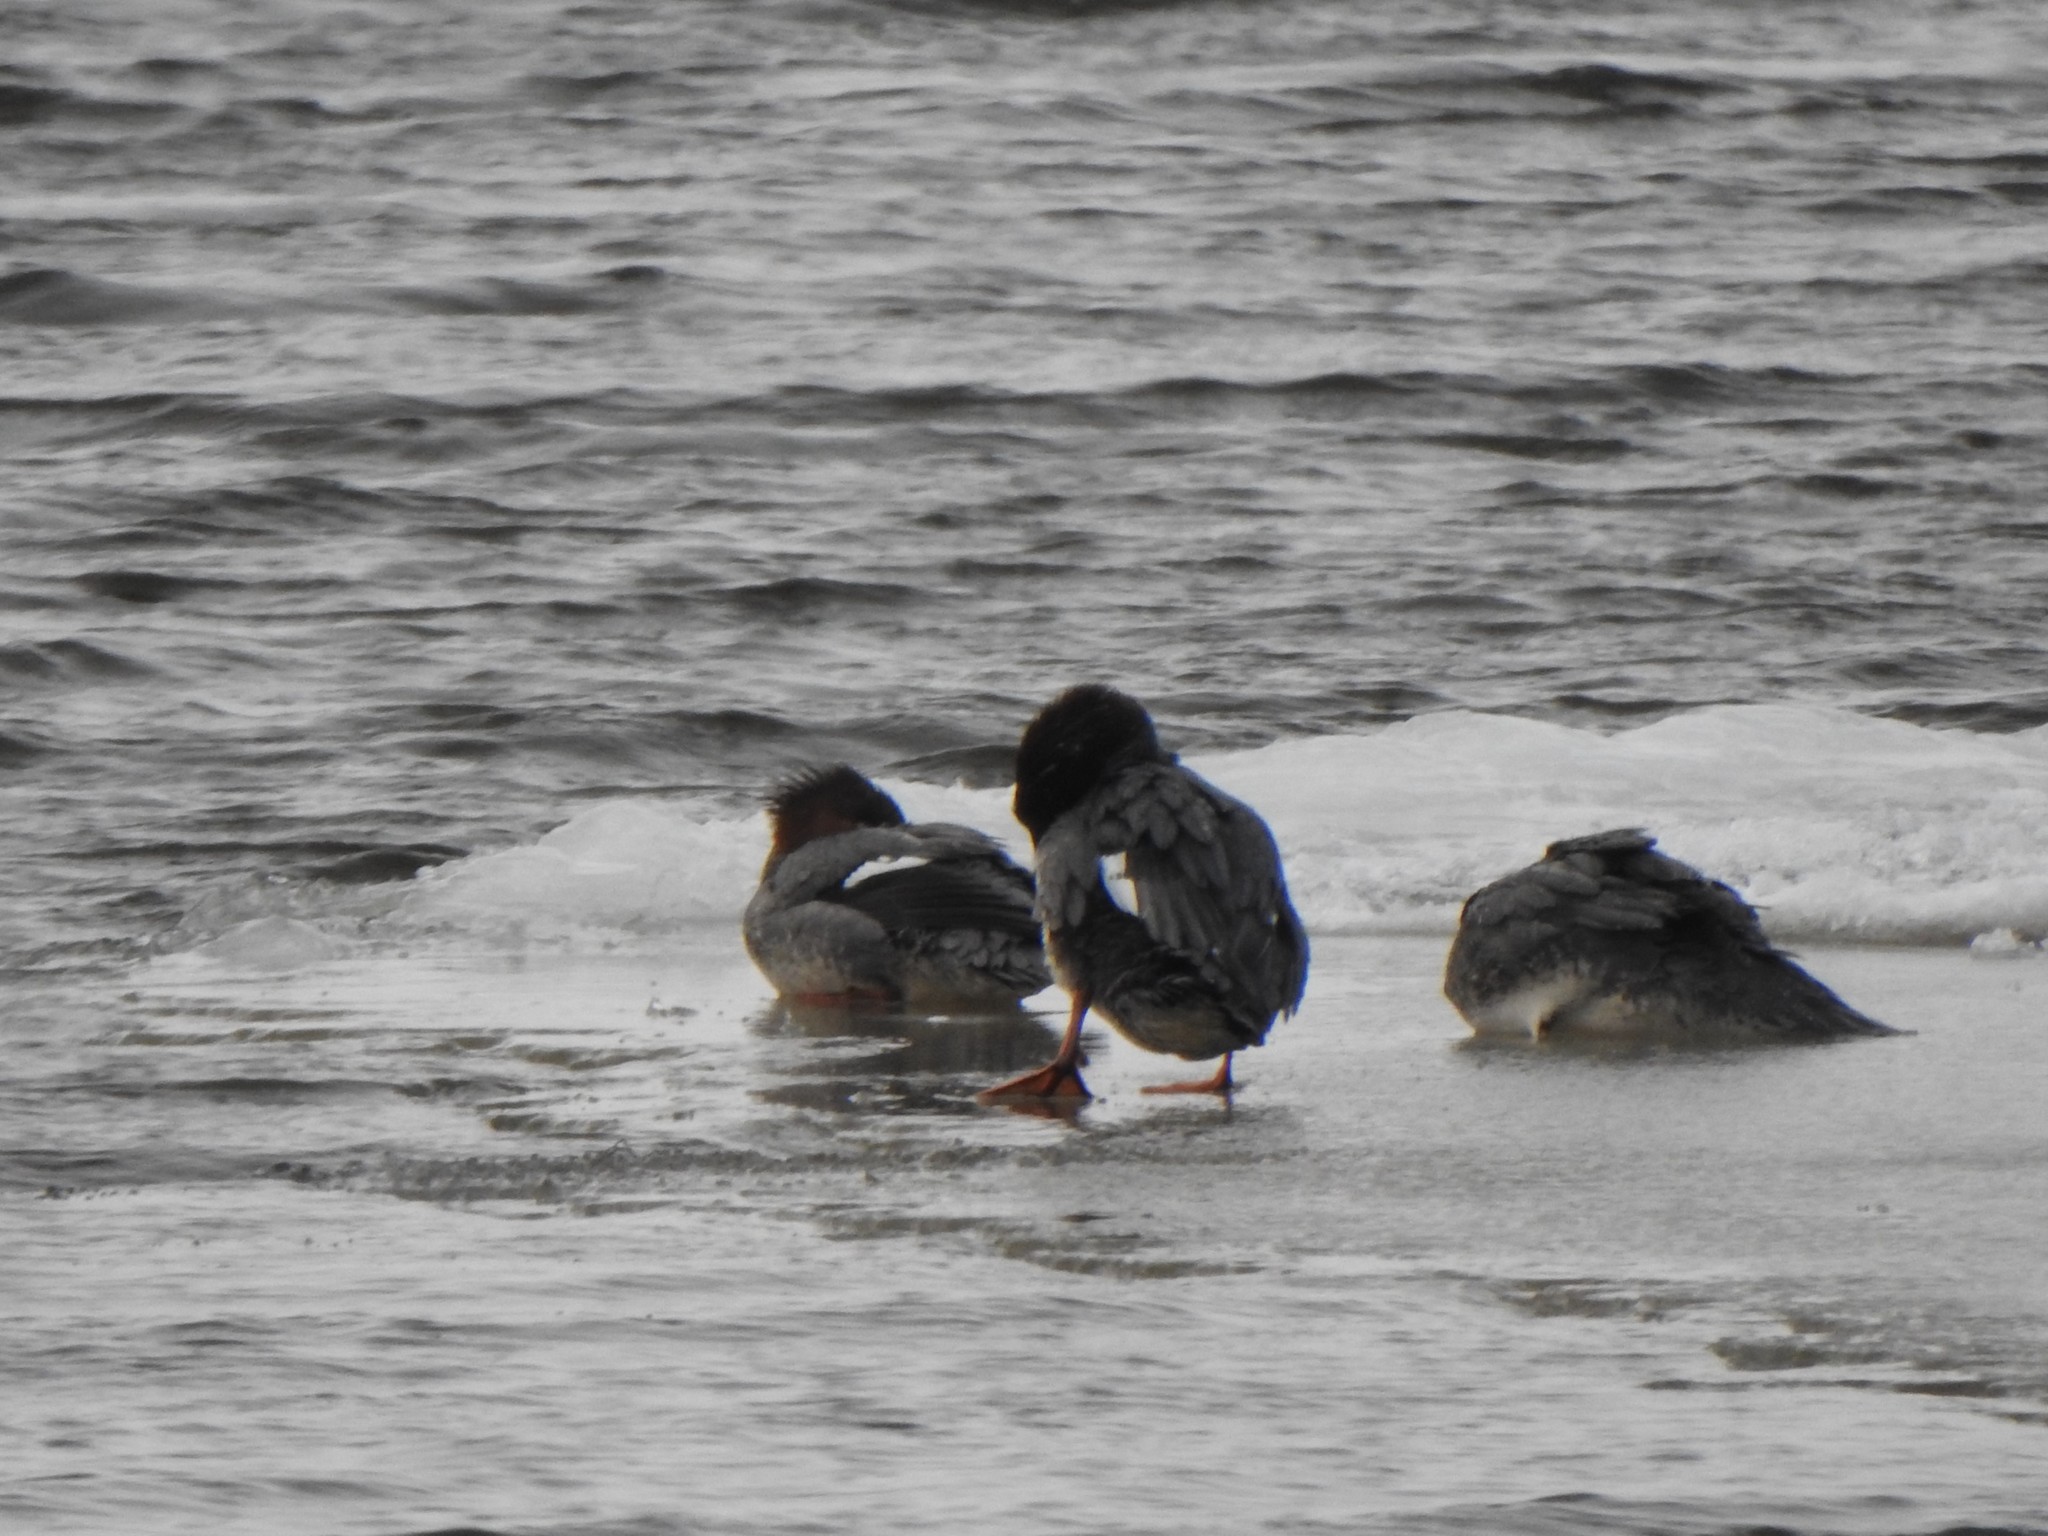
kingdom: Animalia
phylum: Chordata
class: Aves
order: Anseriformes
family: Anatidae
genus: Mergus
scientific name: Mergus serrator
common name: Red-breasted merganser
